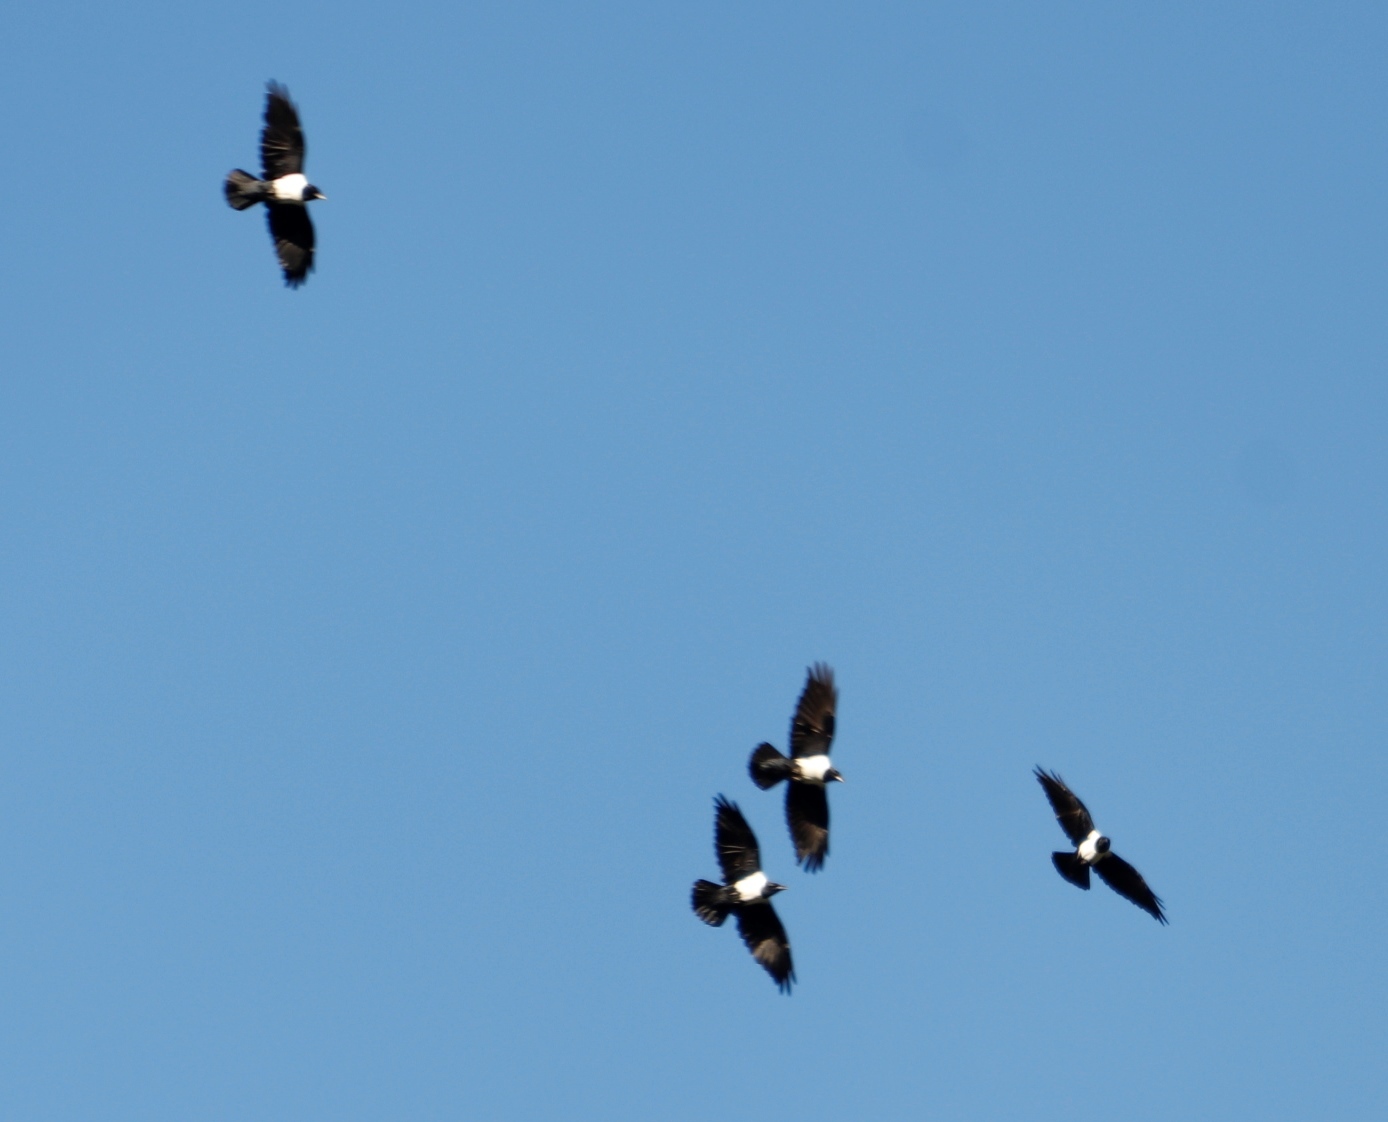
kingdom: Animalia
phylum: Chordata
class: Aves
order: Passeriformes
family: Corvidae
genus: Corvus
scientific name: Corvus albus
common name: Pied crow
